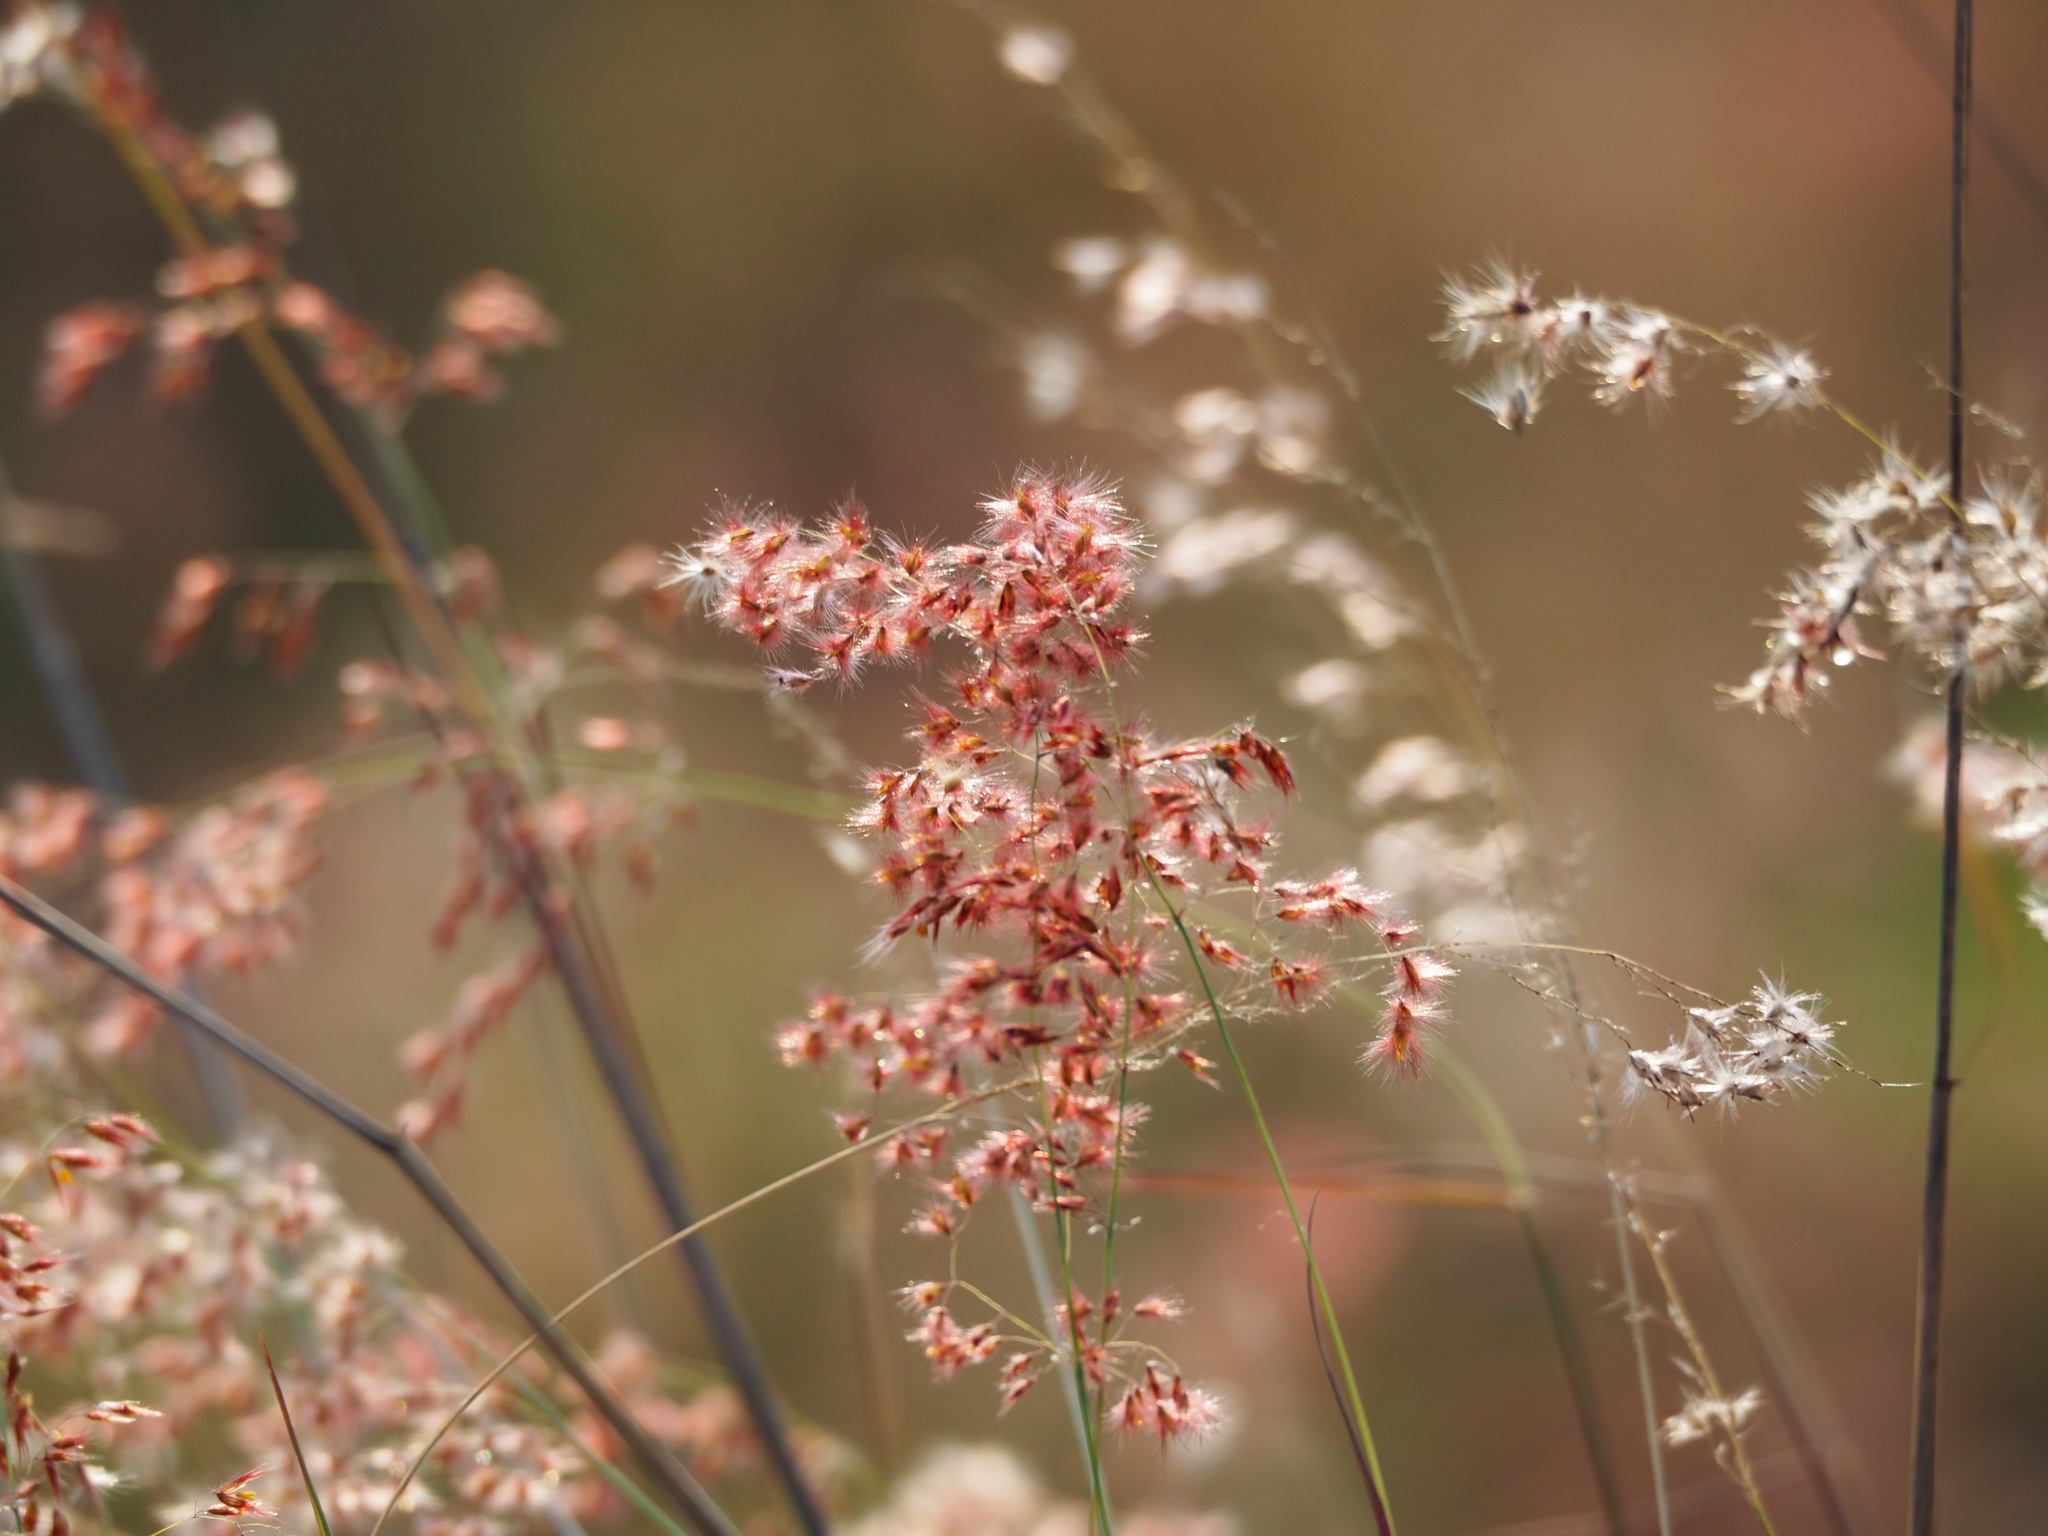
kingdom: Plantae
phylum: Tracheophyta
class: Liliopsida
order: Poales
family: Poaceae
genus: Melinis
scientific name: Melinis repens
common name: Rose natal grass
